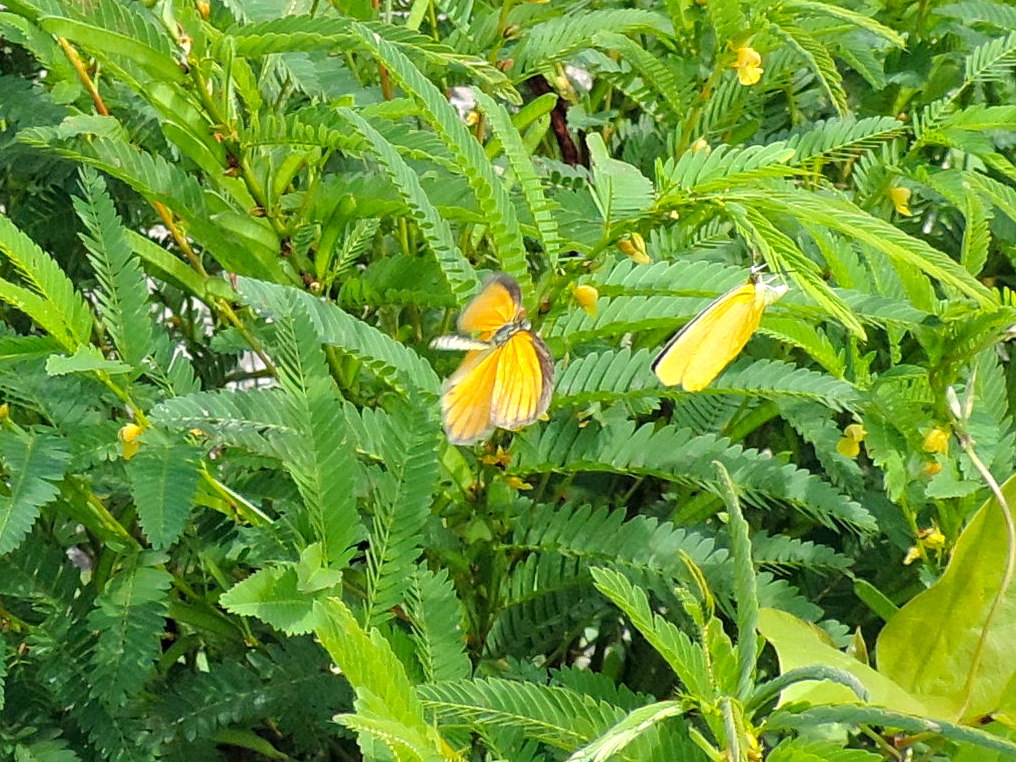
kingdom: Animalia
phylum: Arthropoda
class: Insecta
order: Lepidoptera
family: Pieridae
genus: Pyrisitia
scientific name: Pyrisitia dina
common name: Dina yellow
